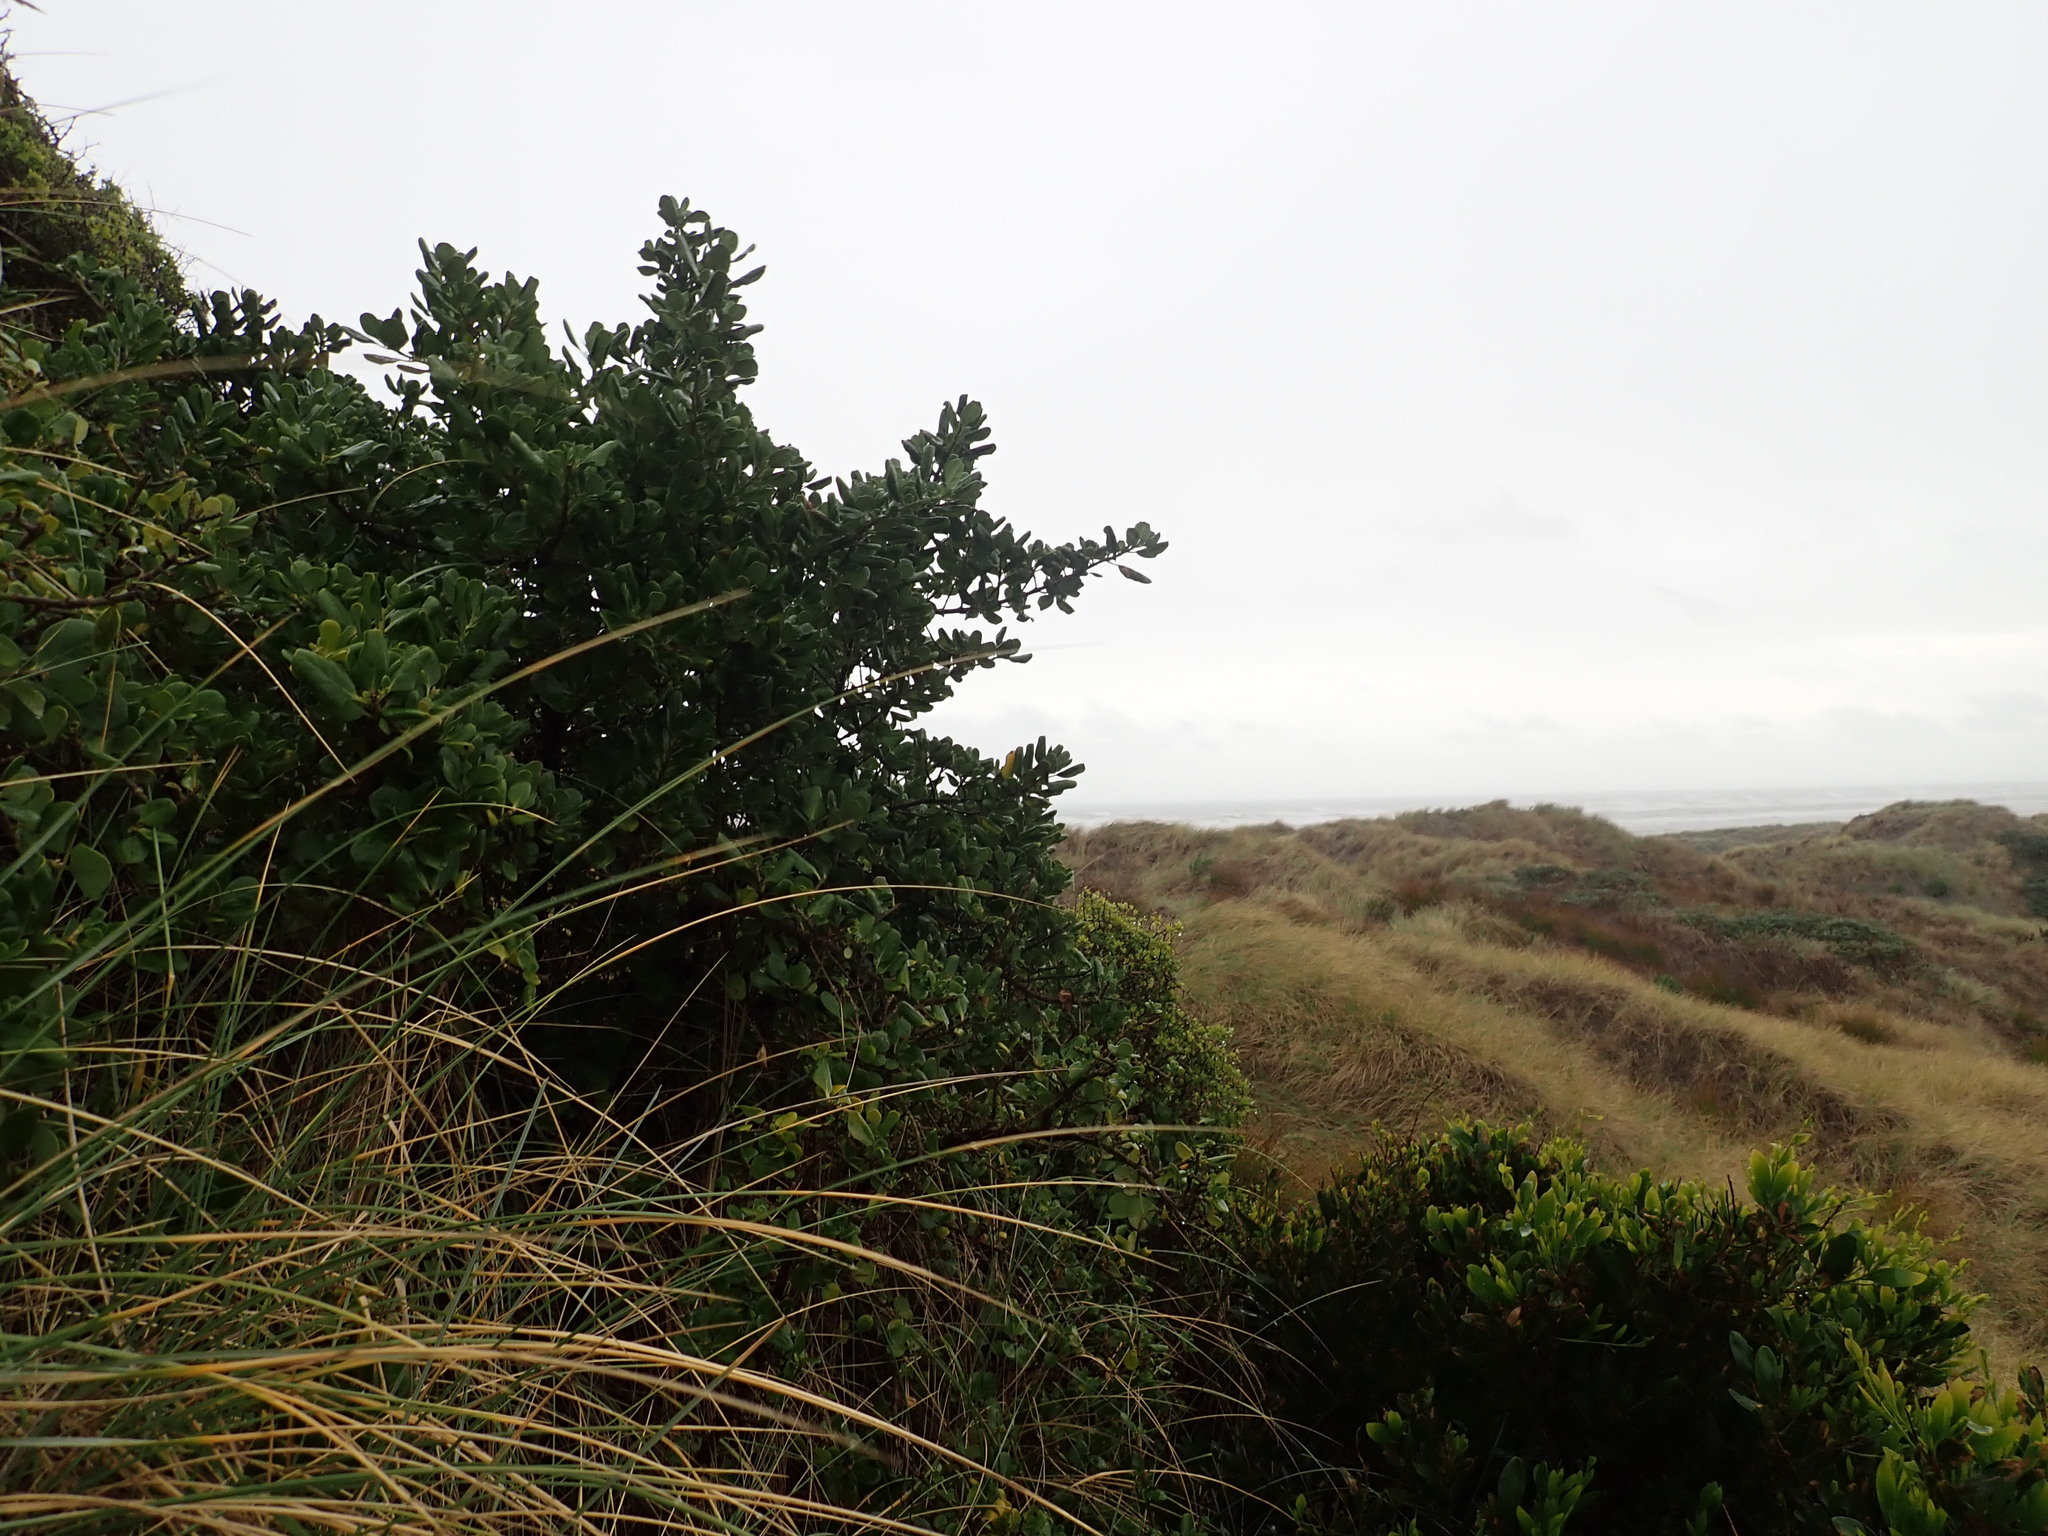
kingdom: Plantae
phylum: Tracheophyta
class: Magnoliopsida
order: Gentianales
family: Rubiaceae
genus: Coprosma
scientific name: Coprosma repens
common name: Tree bedstraw
